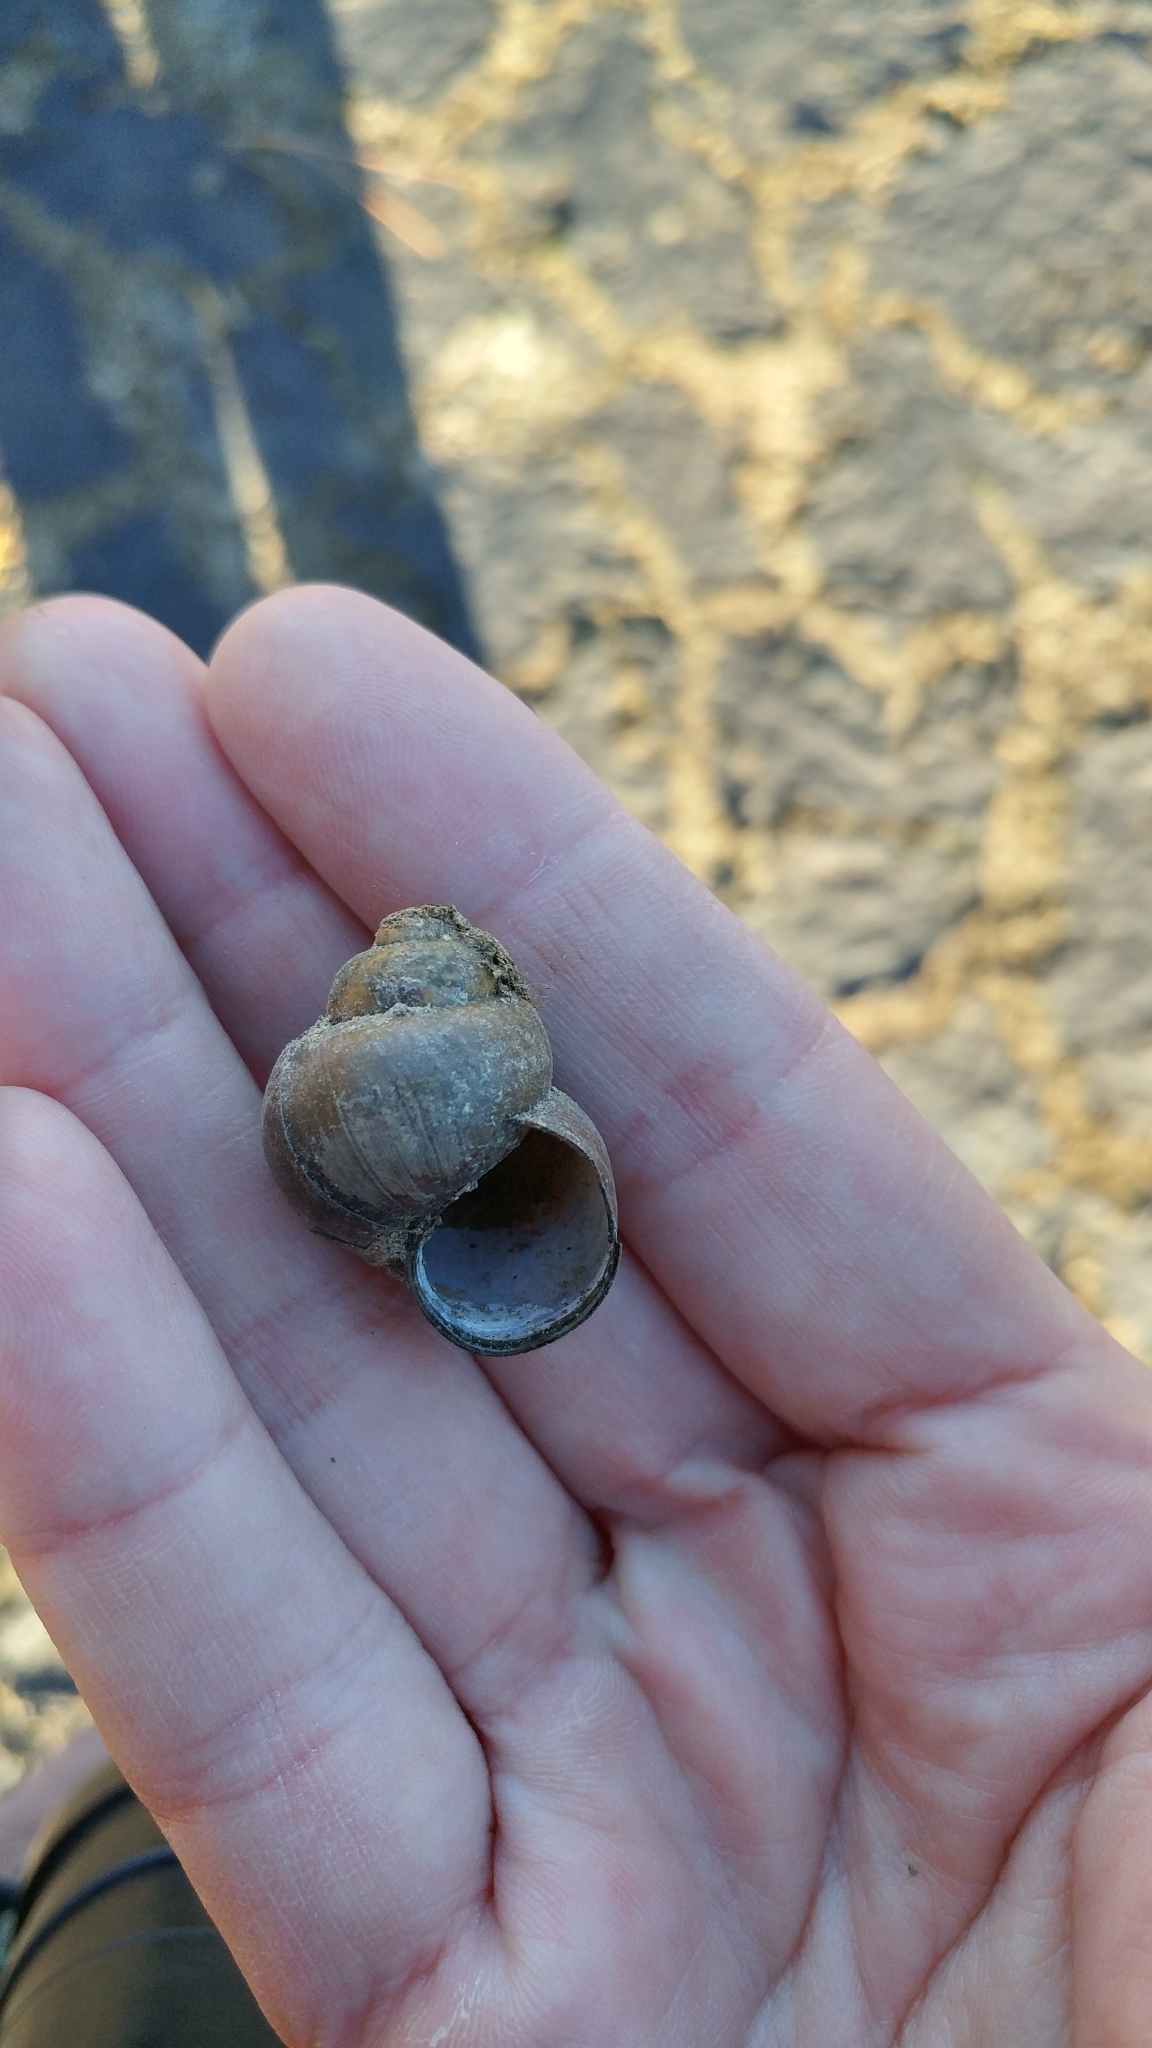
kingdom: Animalia
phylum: Mollusca
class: Gastropoda
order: Architaenioglossa
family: Viviparidae
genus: Cipangopaludina
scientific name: Cipangopaludina chinensis
